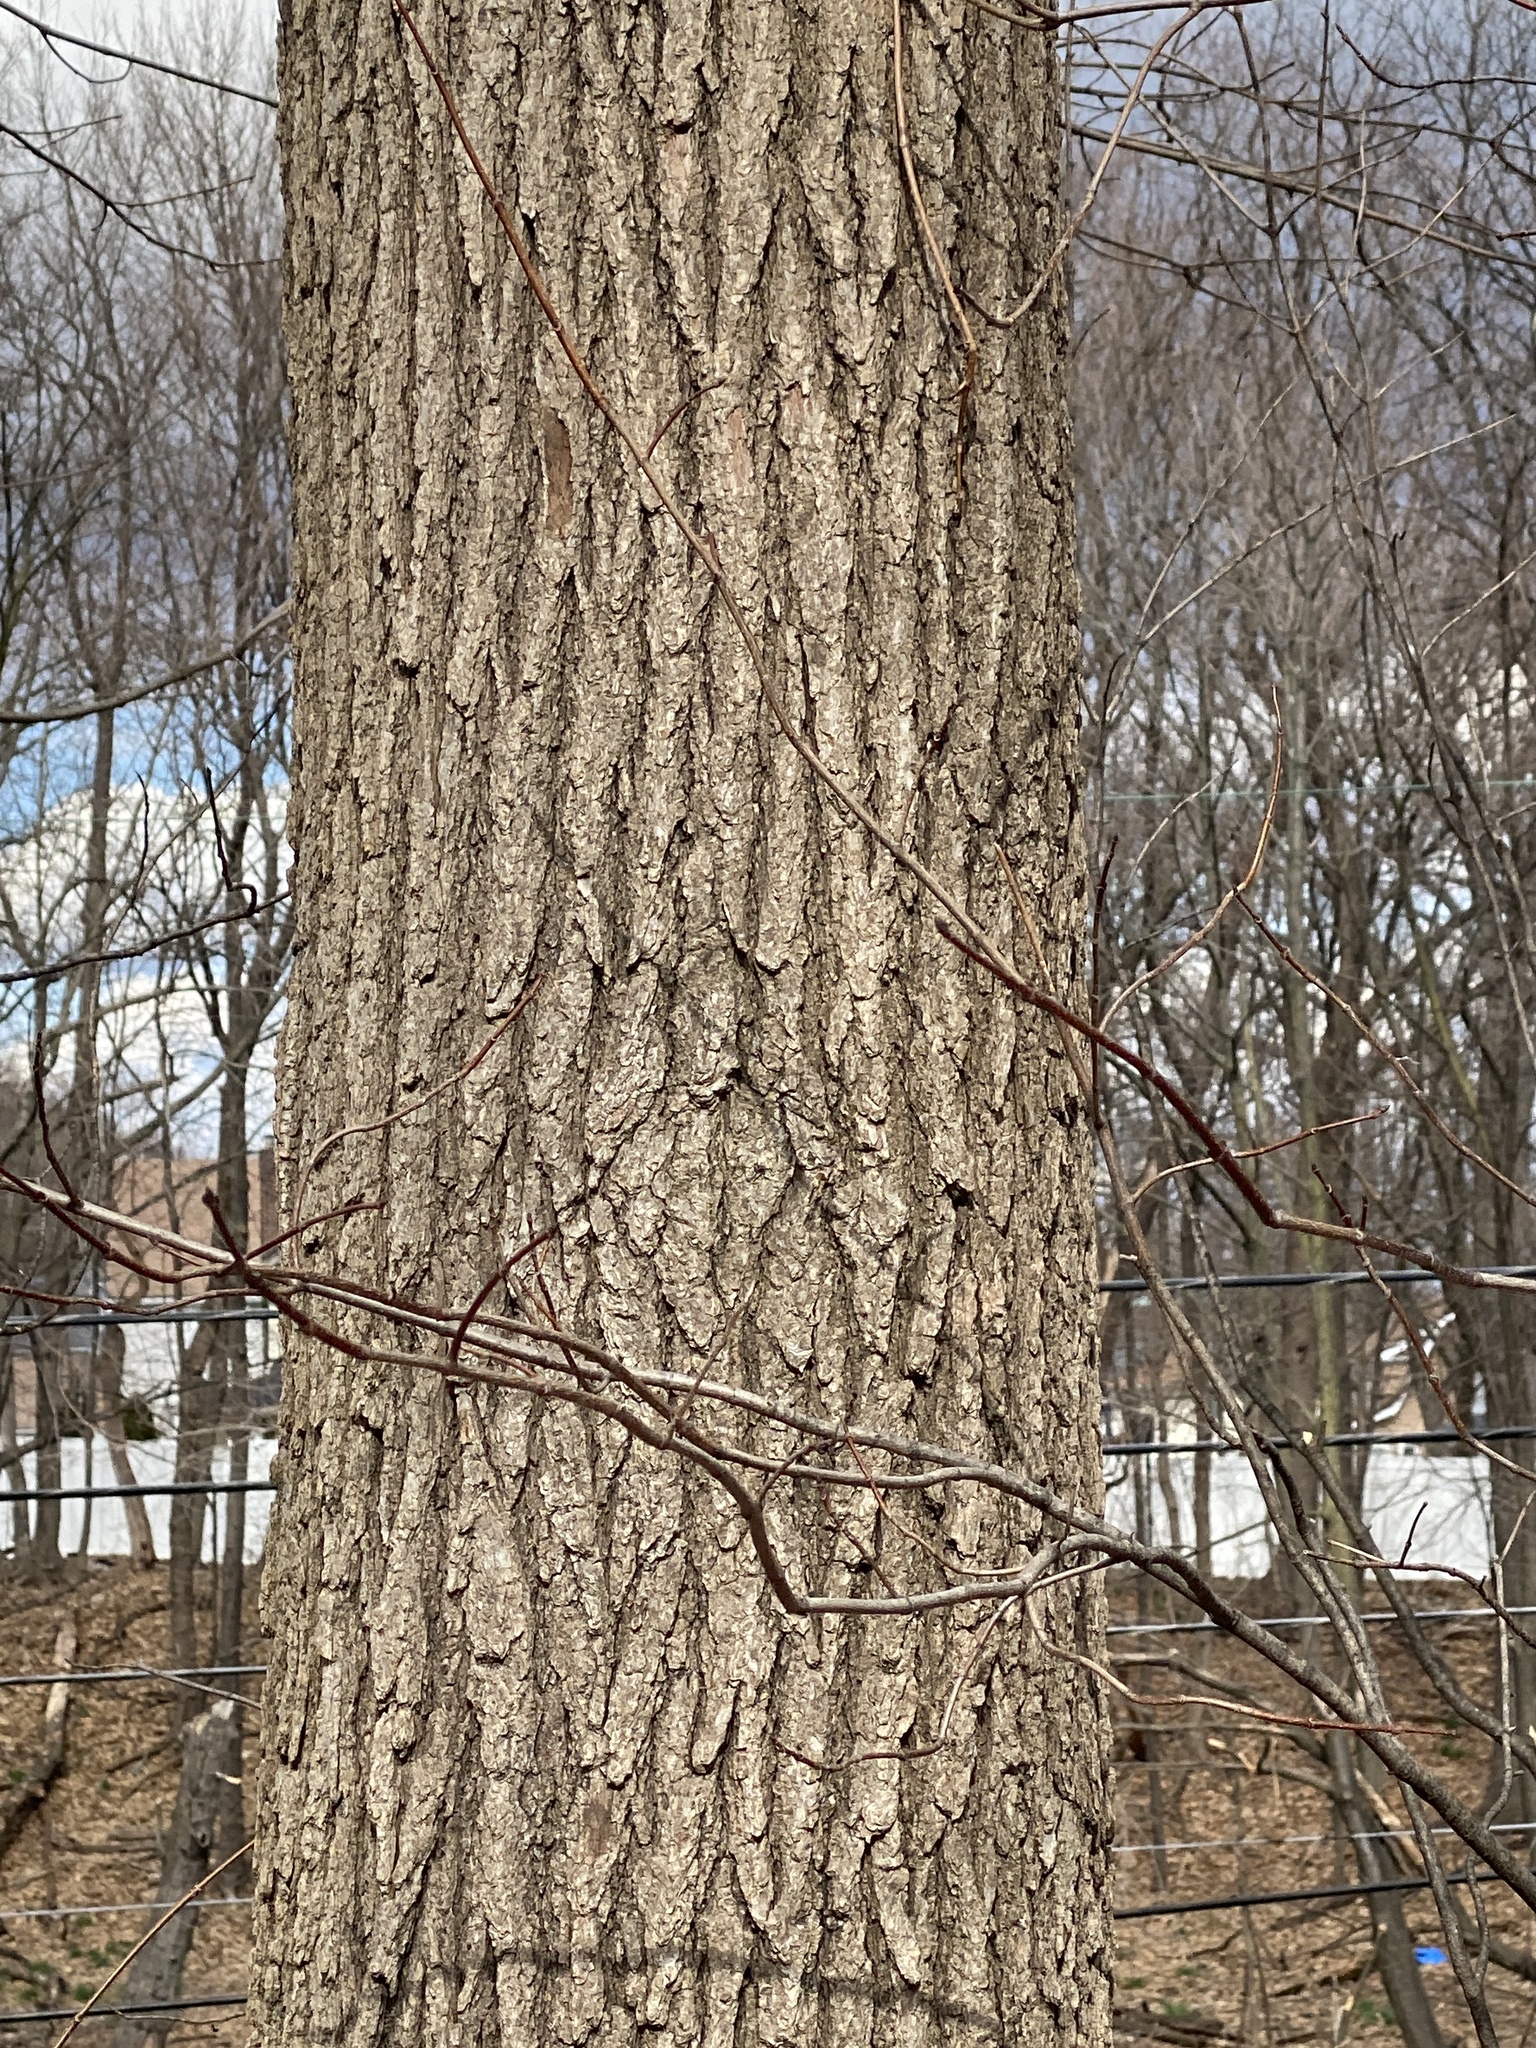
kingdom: Plantae
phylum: Tracheophyta
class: Magnoliopsida
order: Saxifragales
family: Altingiaceae
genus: Liquidambar
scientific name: Liquidambar styraciflua
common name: Sweet gum
